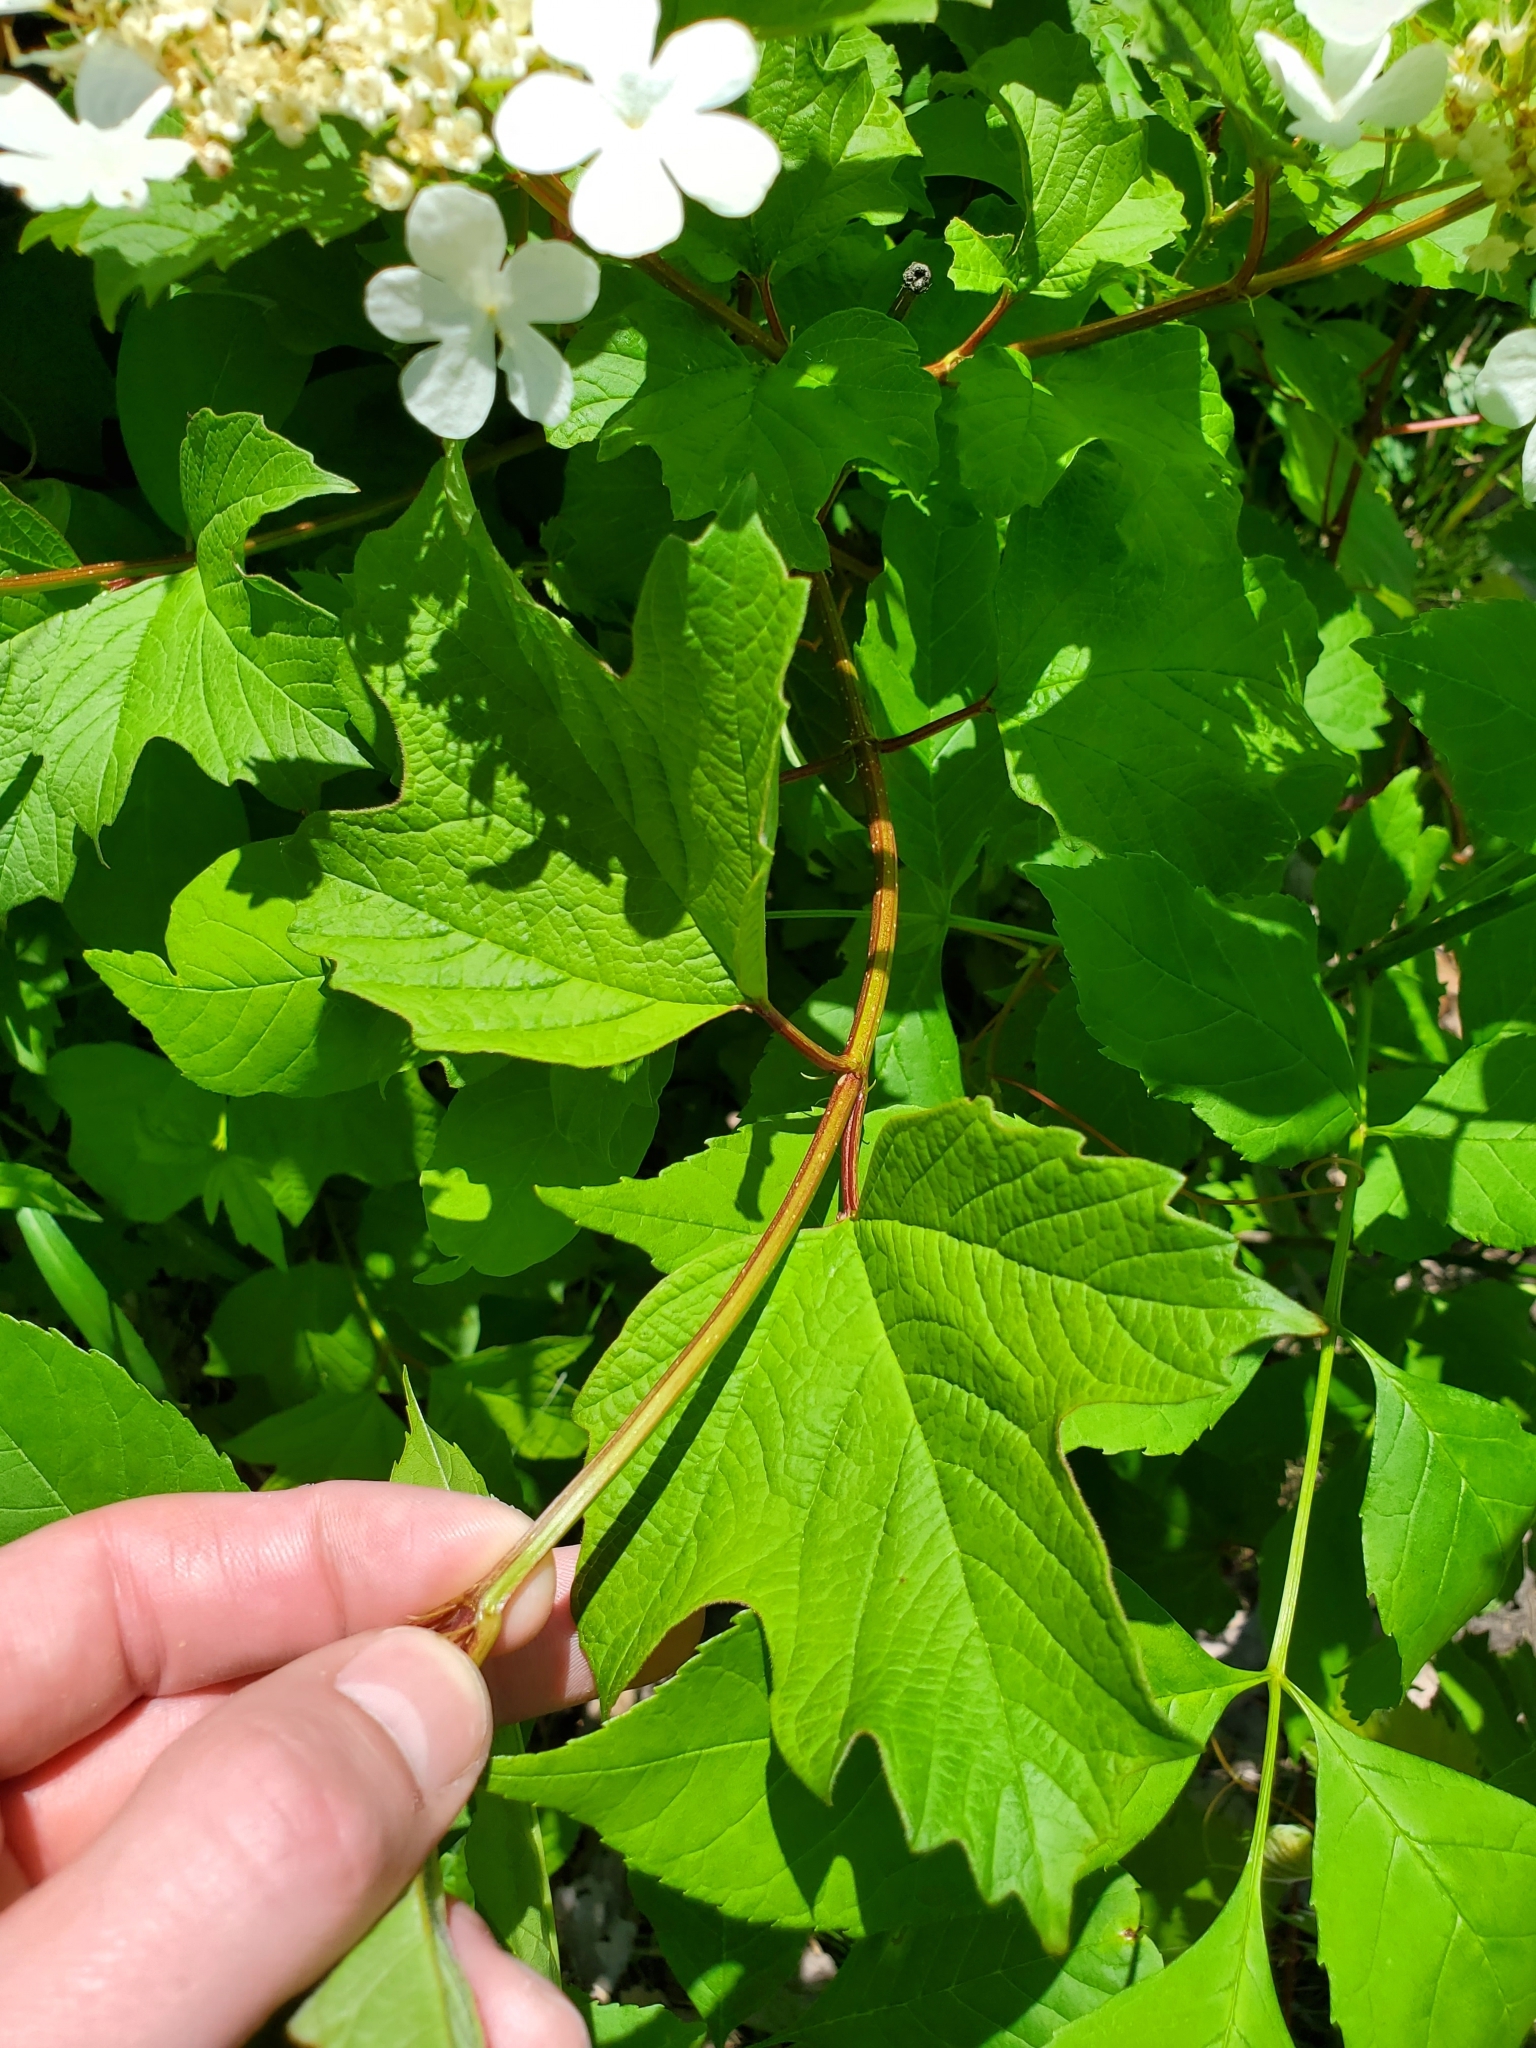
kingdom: Plantae
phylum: Tracheophyta
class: Magnoliopsida
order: Dipsacales
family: Viburnaceae
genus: Viburnum
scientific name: Viburnum opulus
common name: Guelder-rose
